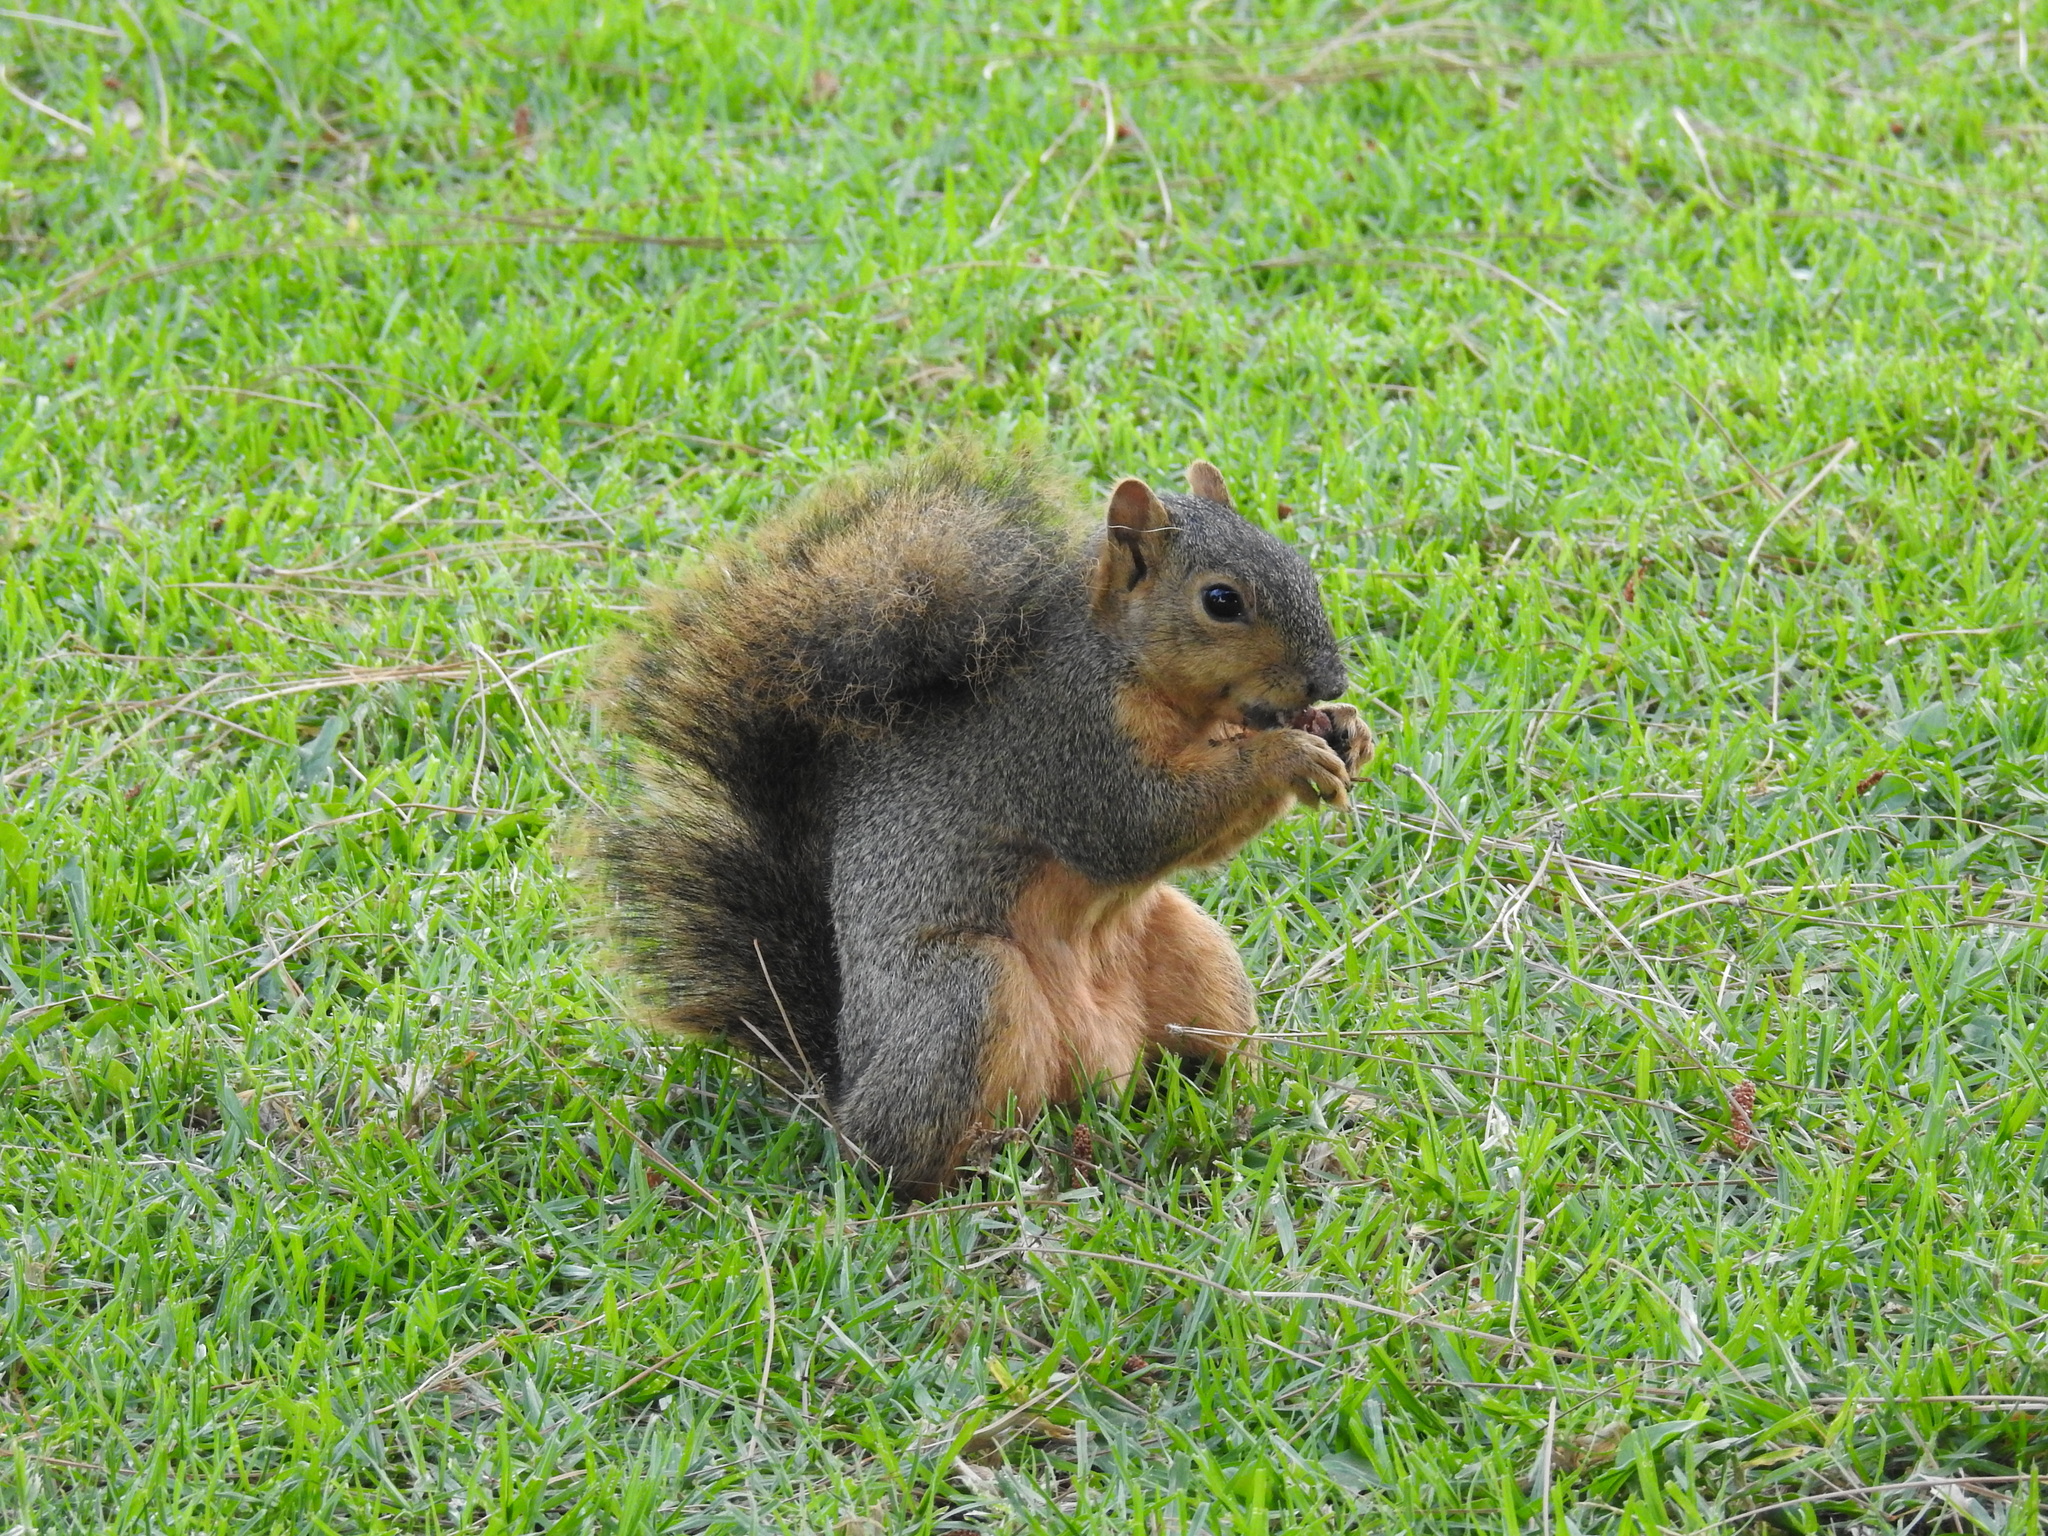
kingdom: Animalia
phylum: Chordata
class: Mammalia
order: Rodentia
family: Sciuridae
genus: Sciurus
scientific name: Sciurus niger
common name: Fox squirrel
